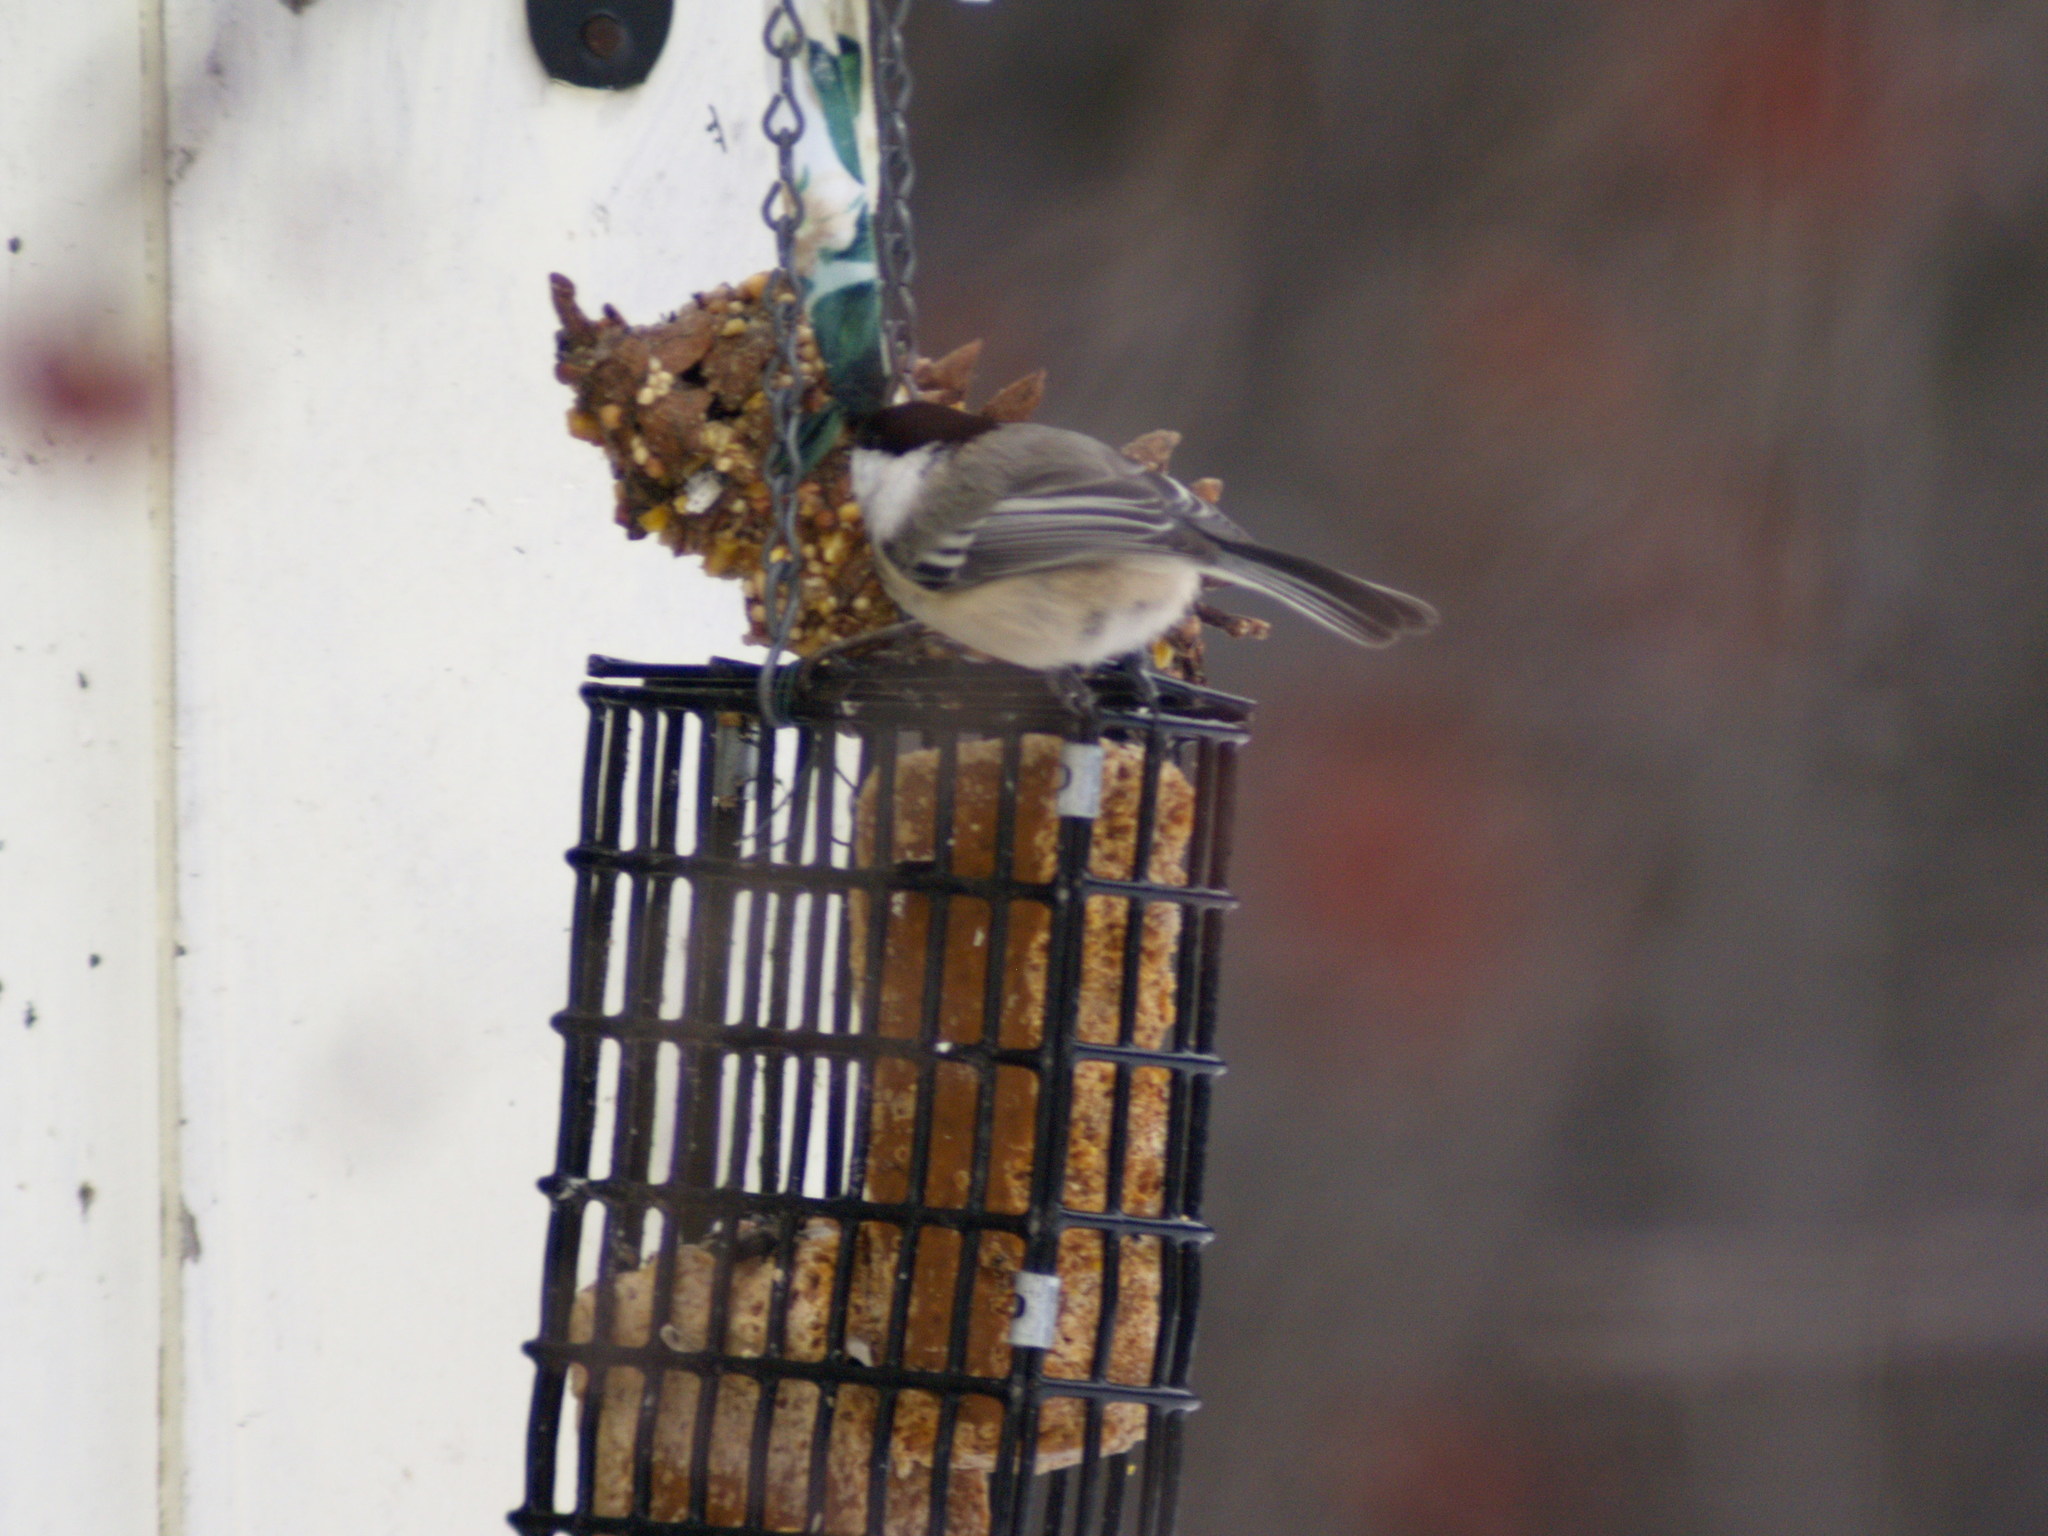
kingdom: Animalia
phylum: Chordata
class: Aves
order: Passeriformes
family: Paridae
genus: Poecile
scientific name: Poecile atricapillus
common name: Black-capped chickadee
